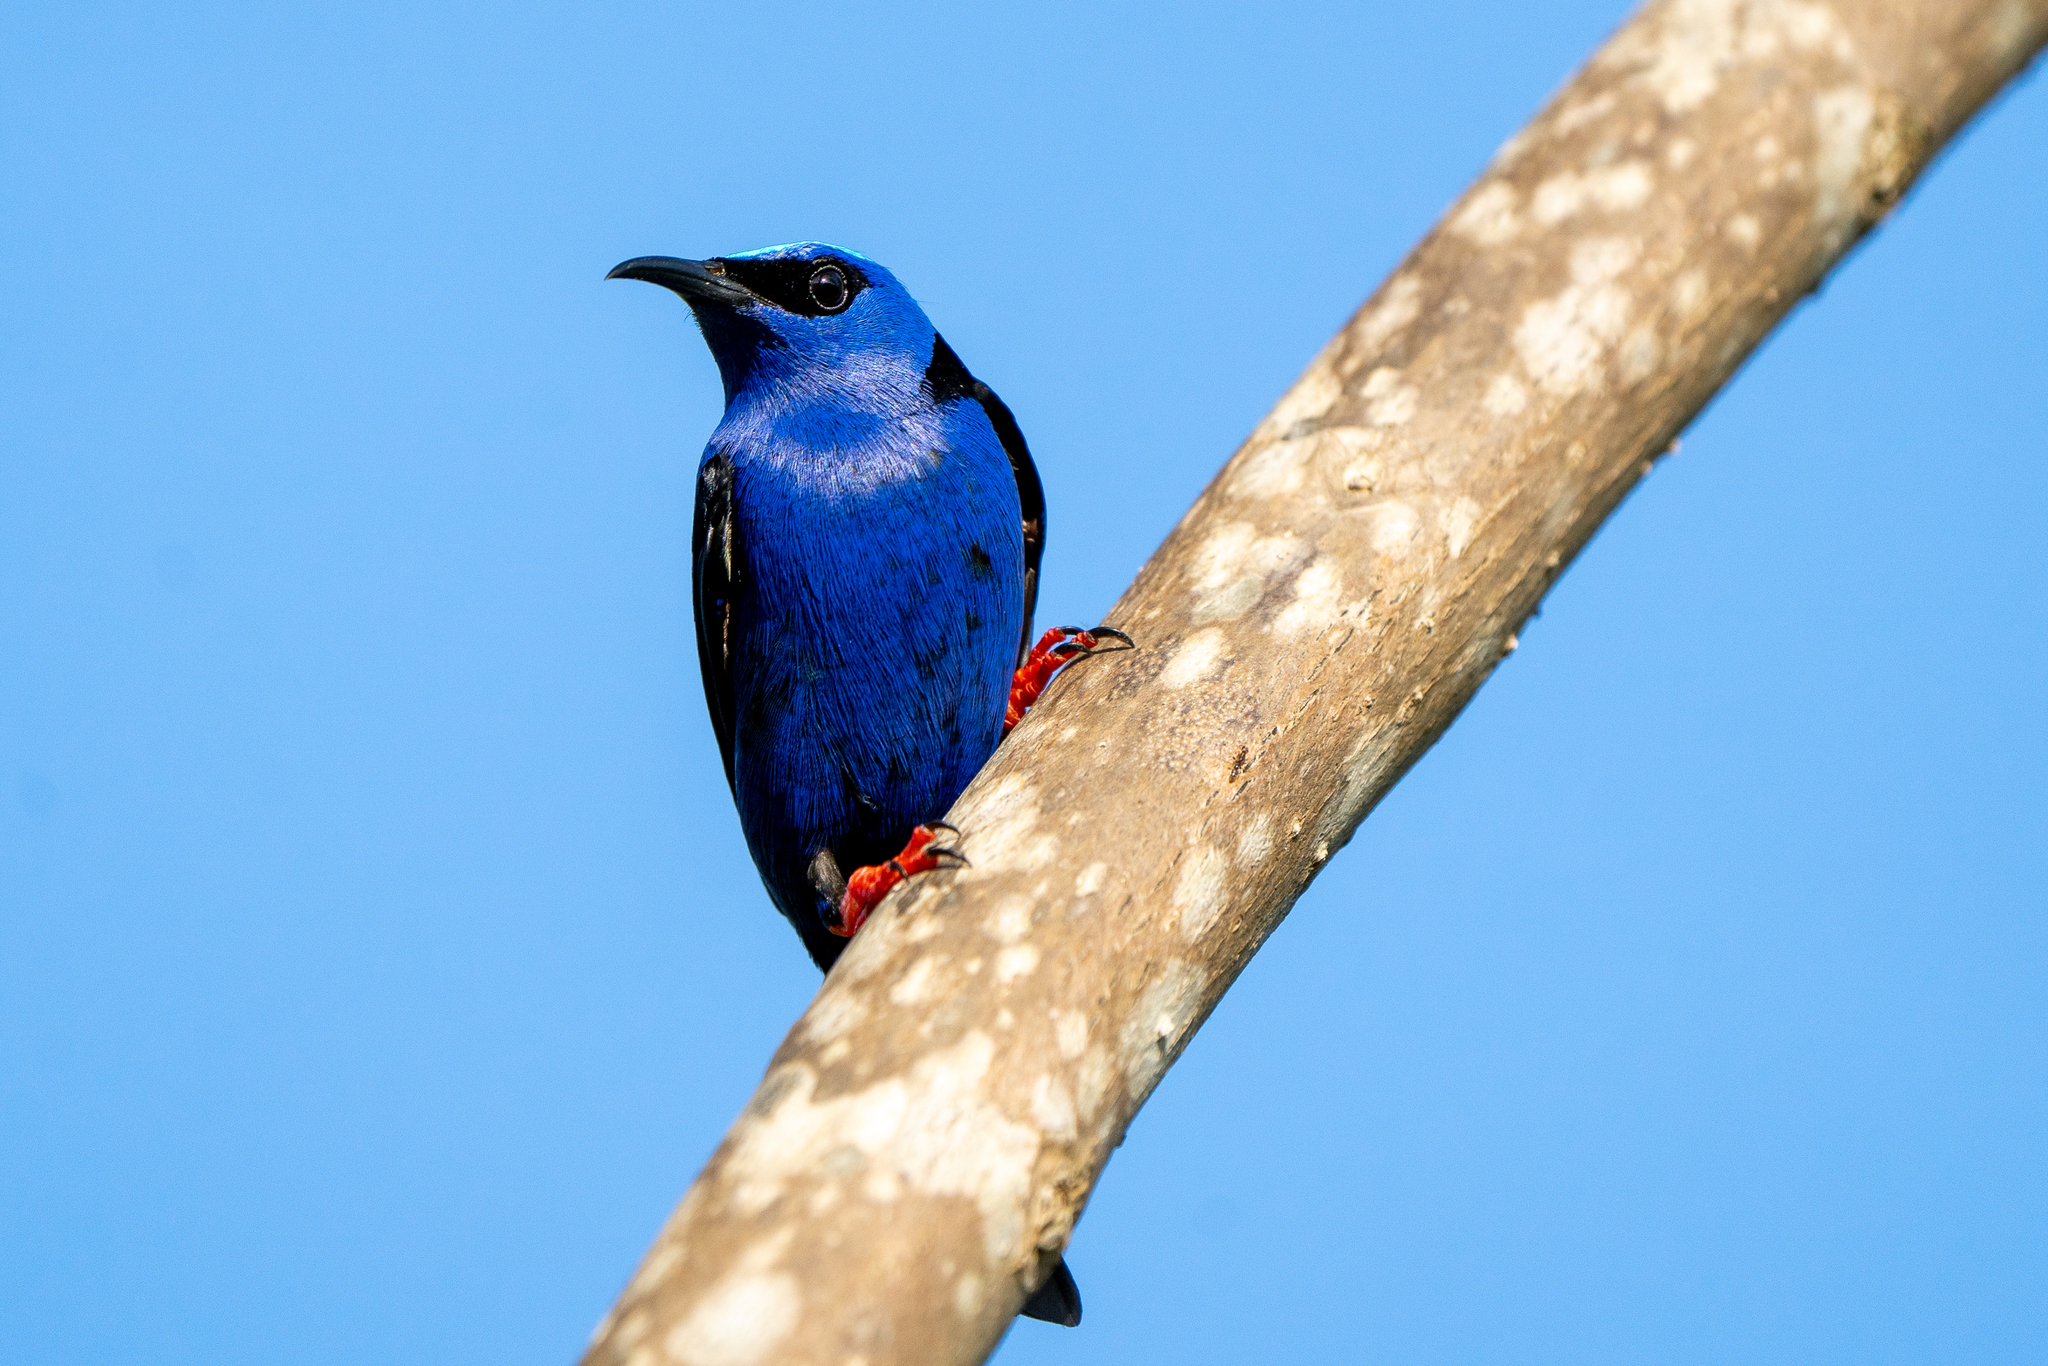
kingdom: Animalia
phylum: Chordata
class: Aves
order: Passeriformes
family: Thraupidae
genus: Cyanerpes
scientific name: Cyanerpes cyaneus
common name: Red-legged honeycreeper
